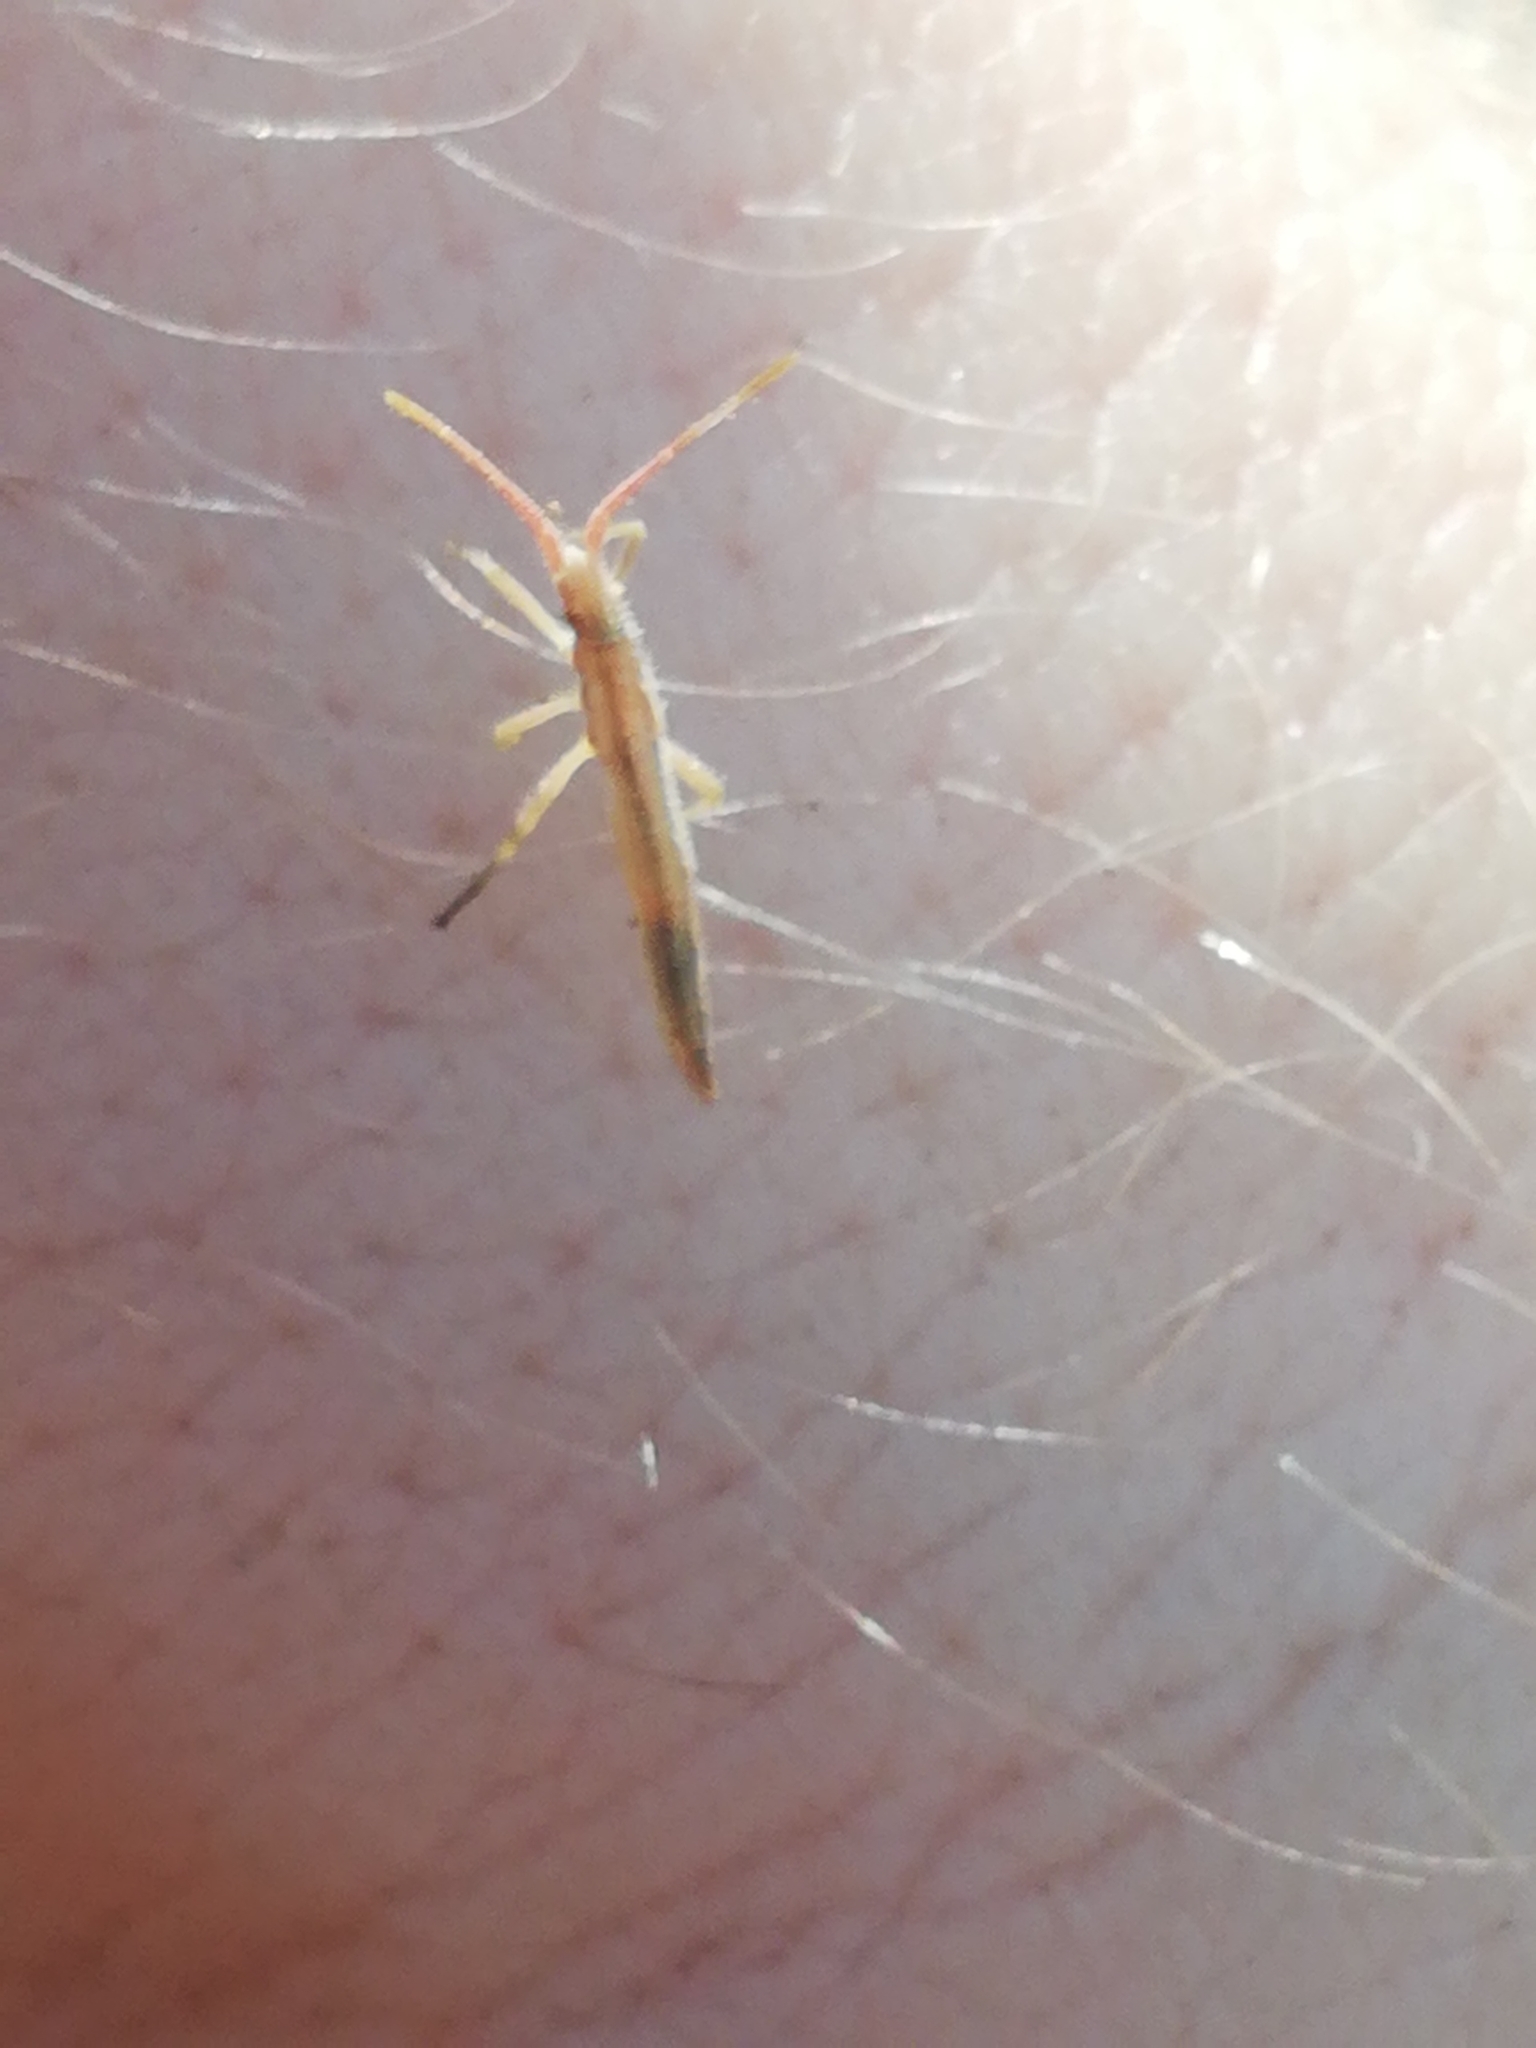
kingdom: Animalia
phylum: Arthropoda
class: Insecta
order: Hemiptera
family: Rhopalidae
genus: Chorosoma
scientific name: Chorosoma schillingii
